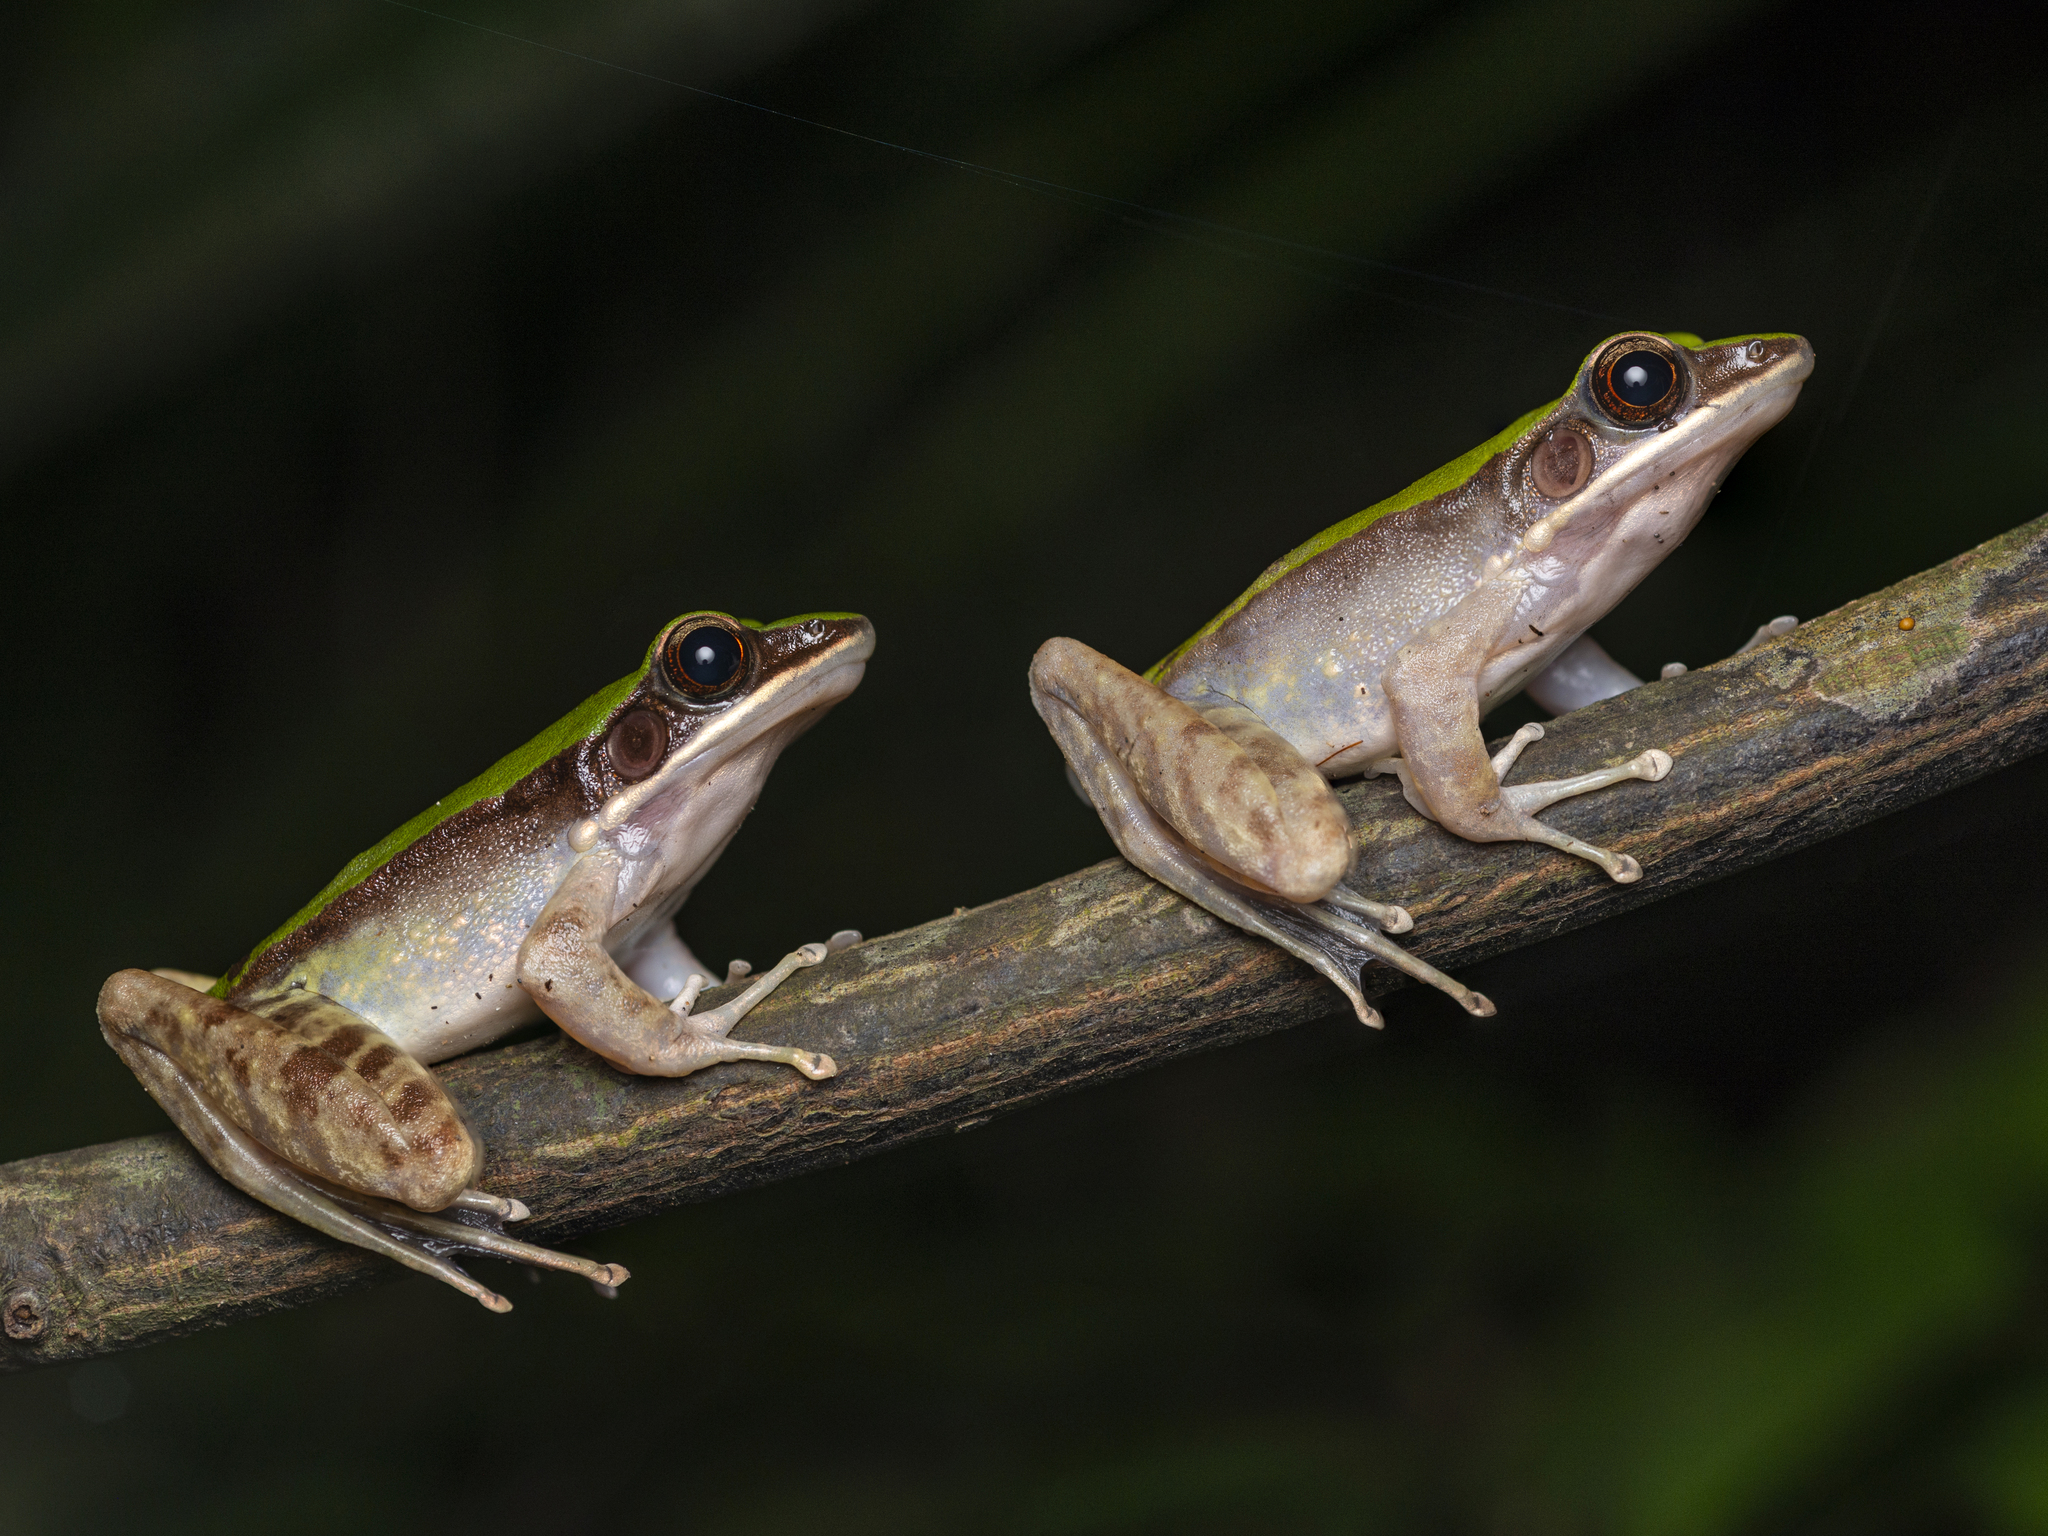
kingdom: Animalia
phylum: Chordata
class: Amphibia
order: Anura
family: Ranidae
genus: Odorrana
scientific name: Odorrana graminea
